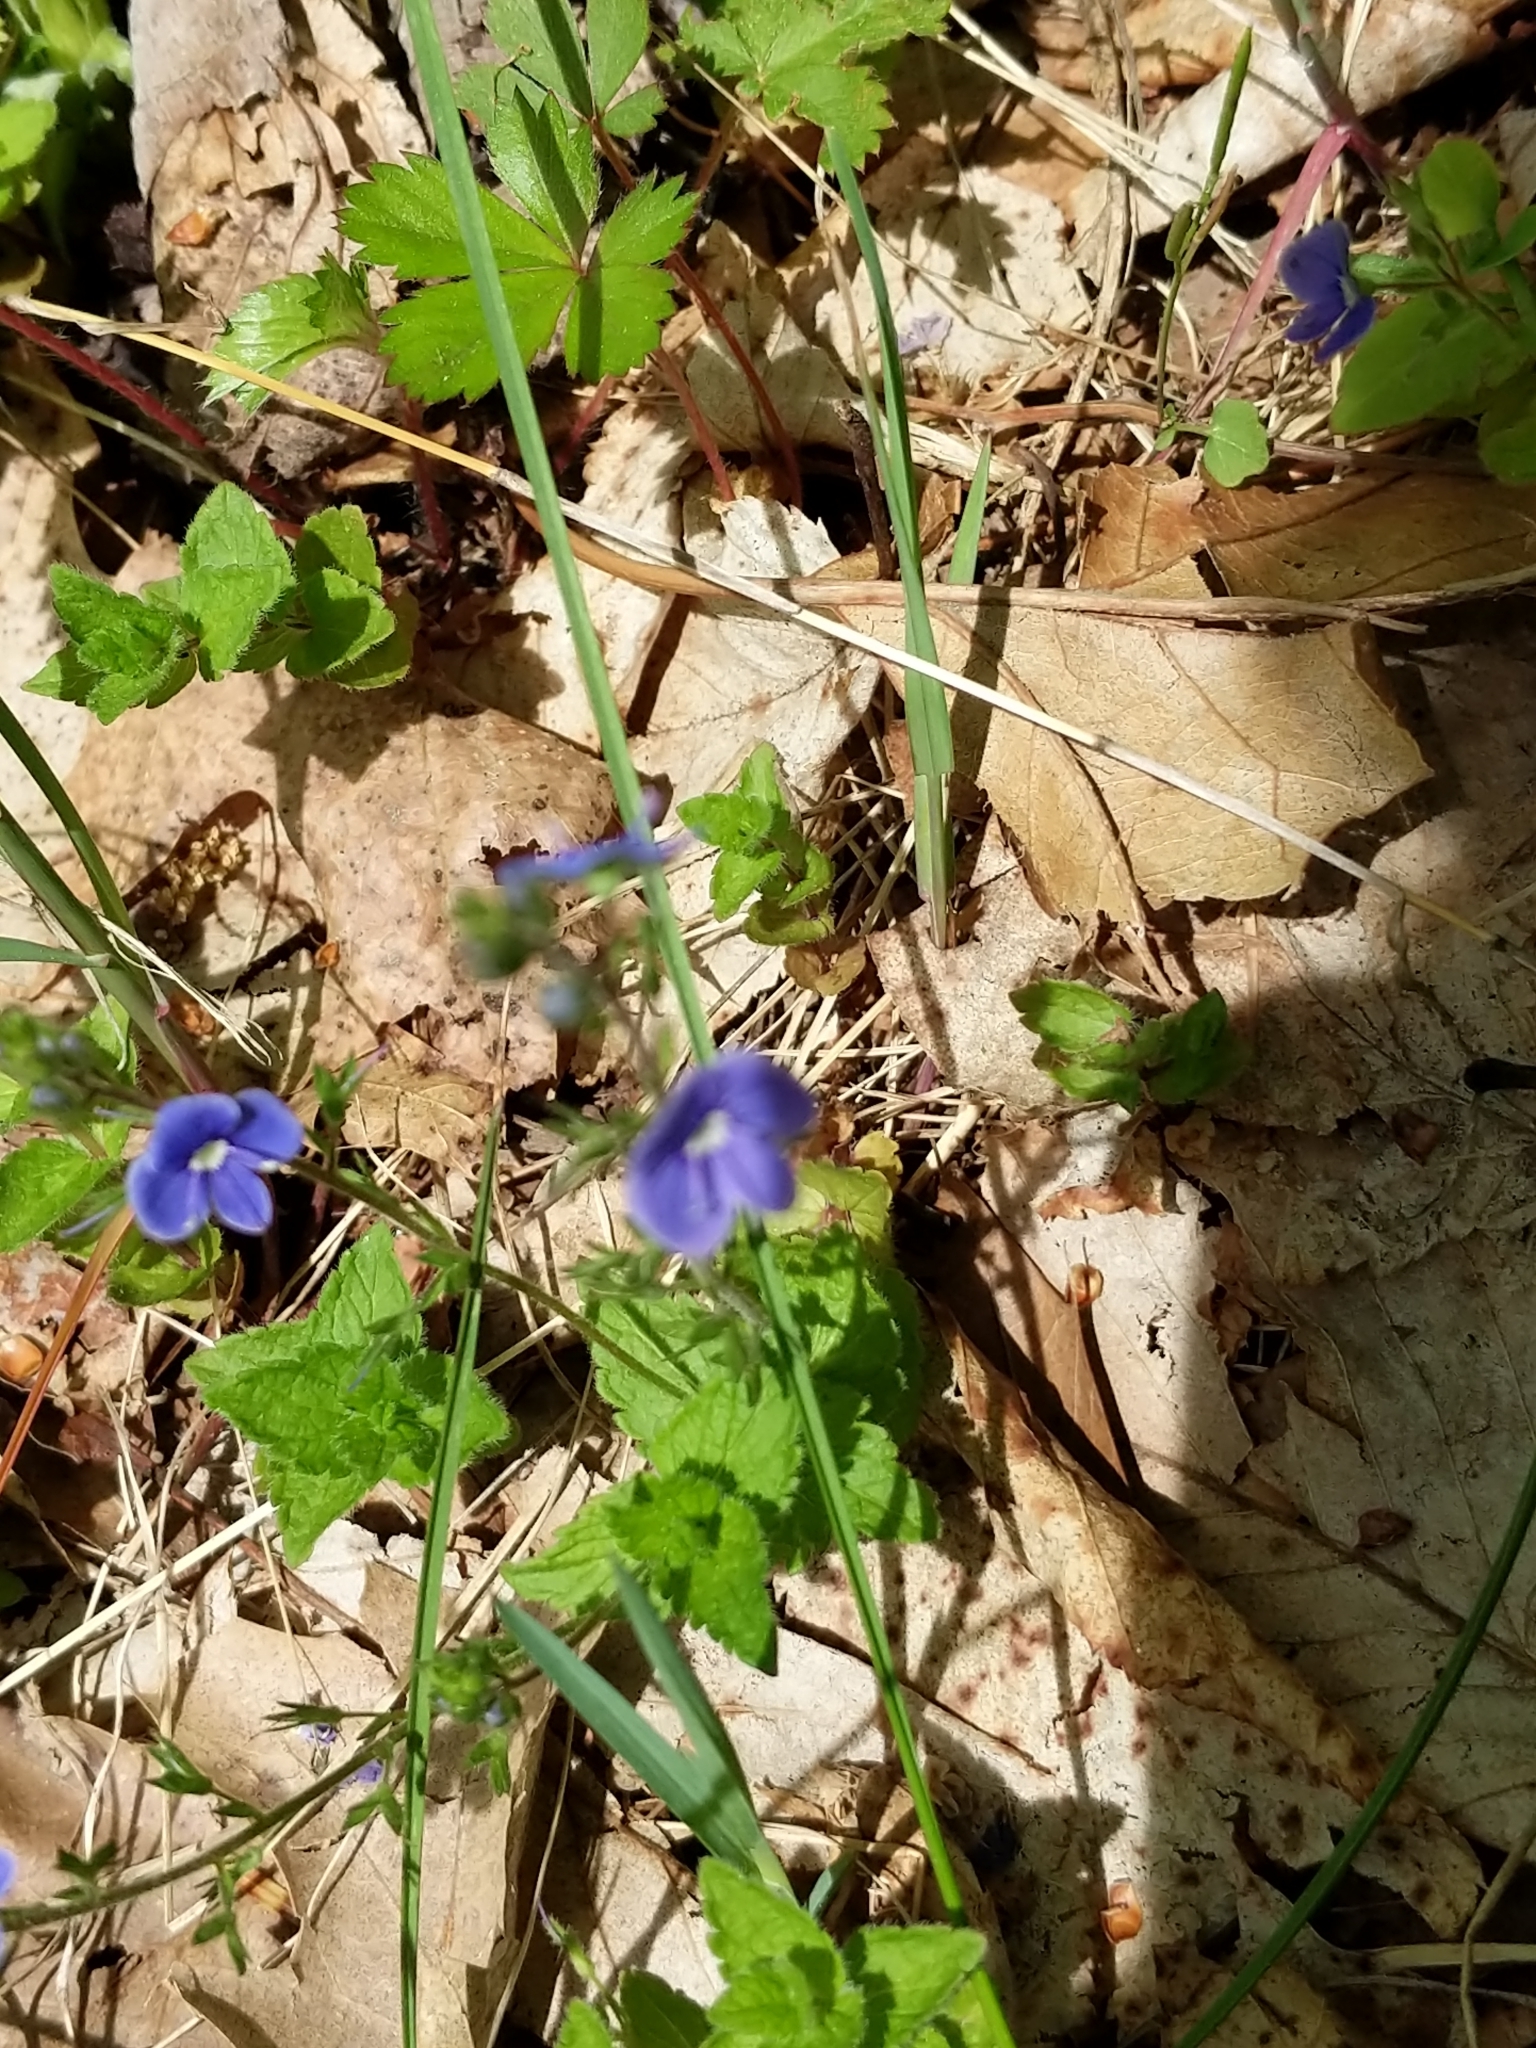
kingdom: Plantae
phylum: Tracheophyta
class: Magnoliopsida
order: Lamiales
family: Plantaginaceae
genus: Veronica
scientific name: Veronica chamaedrys
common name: Germander speedwell
